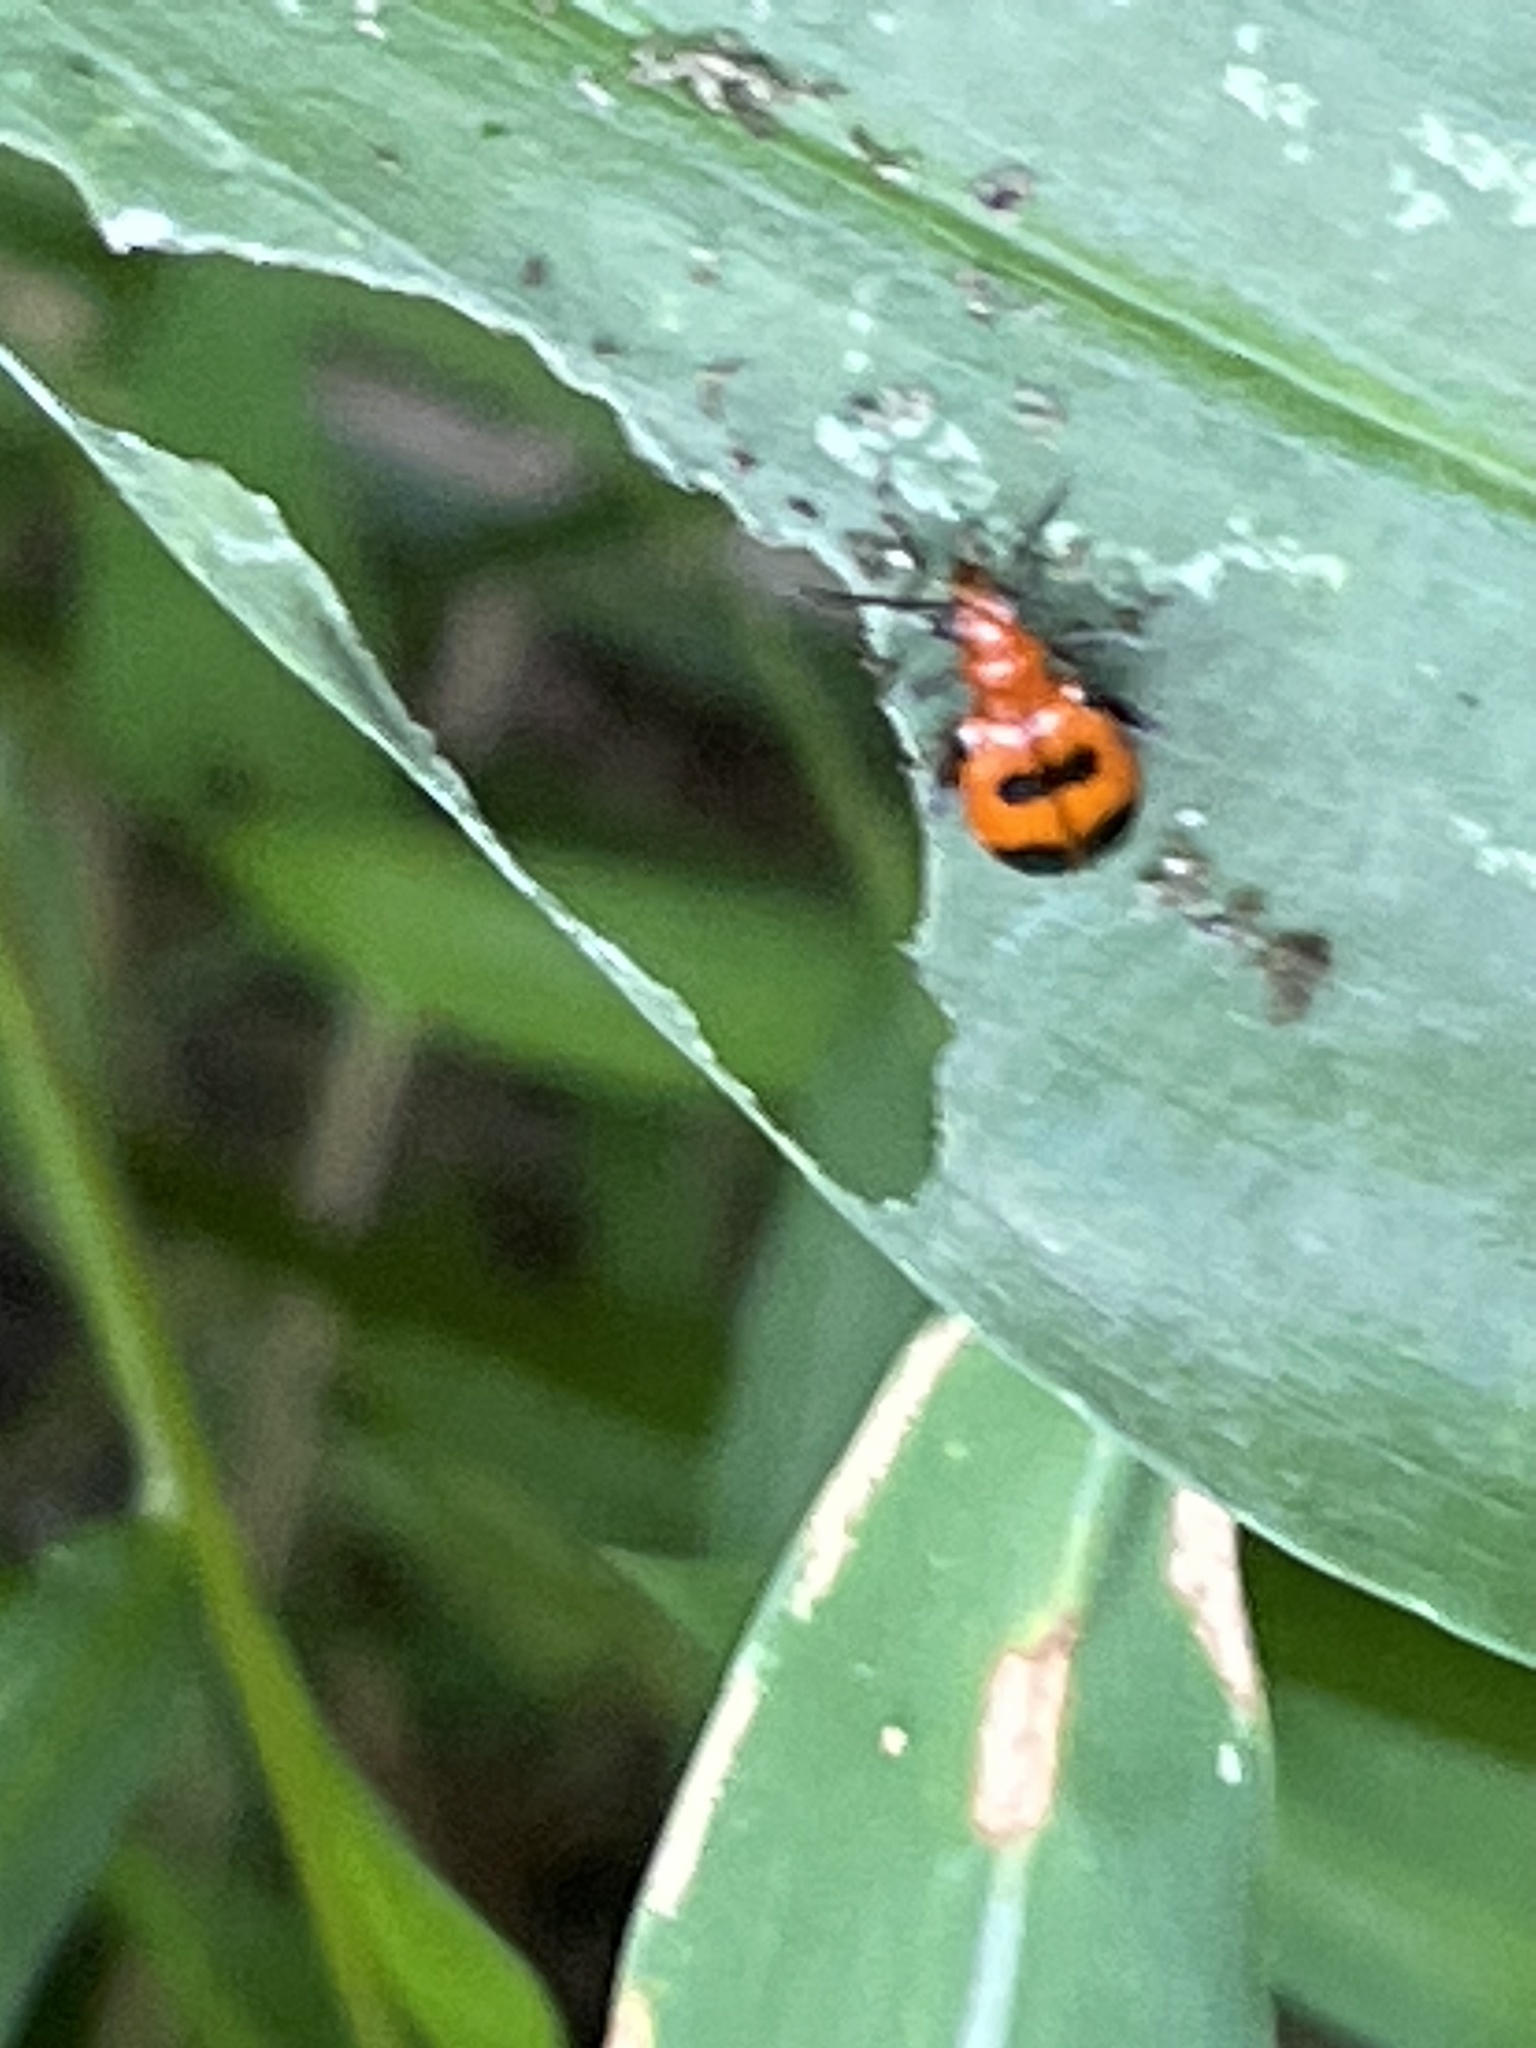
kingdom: Animalia
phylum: Arthropoda
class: Insecta
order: Coleoptera
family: Chrysomelidae
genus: Neolema
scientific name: Neolema sexpunctata
